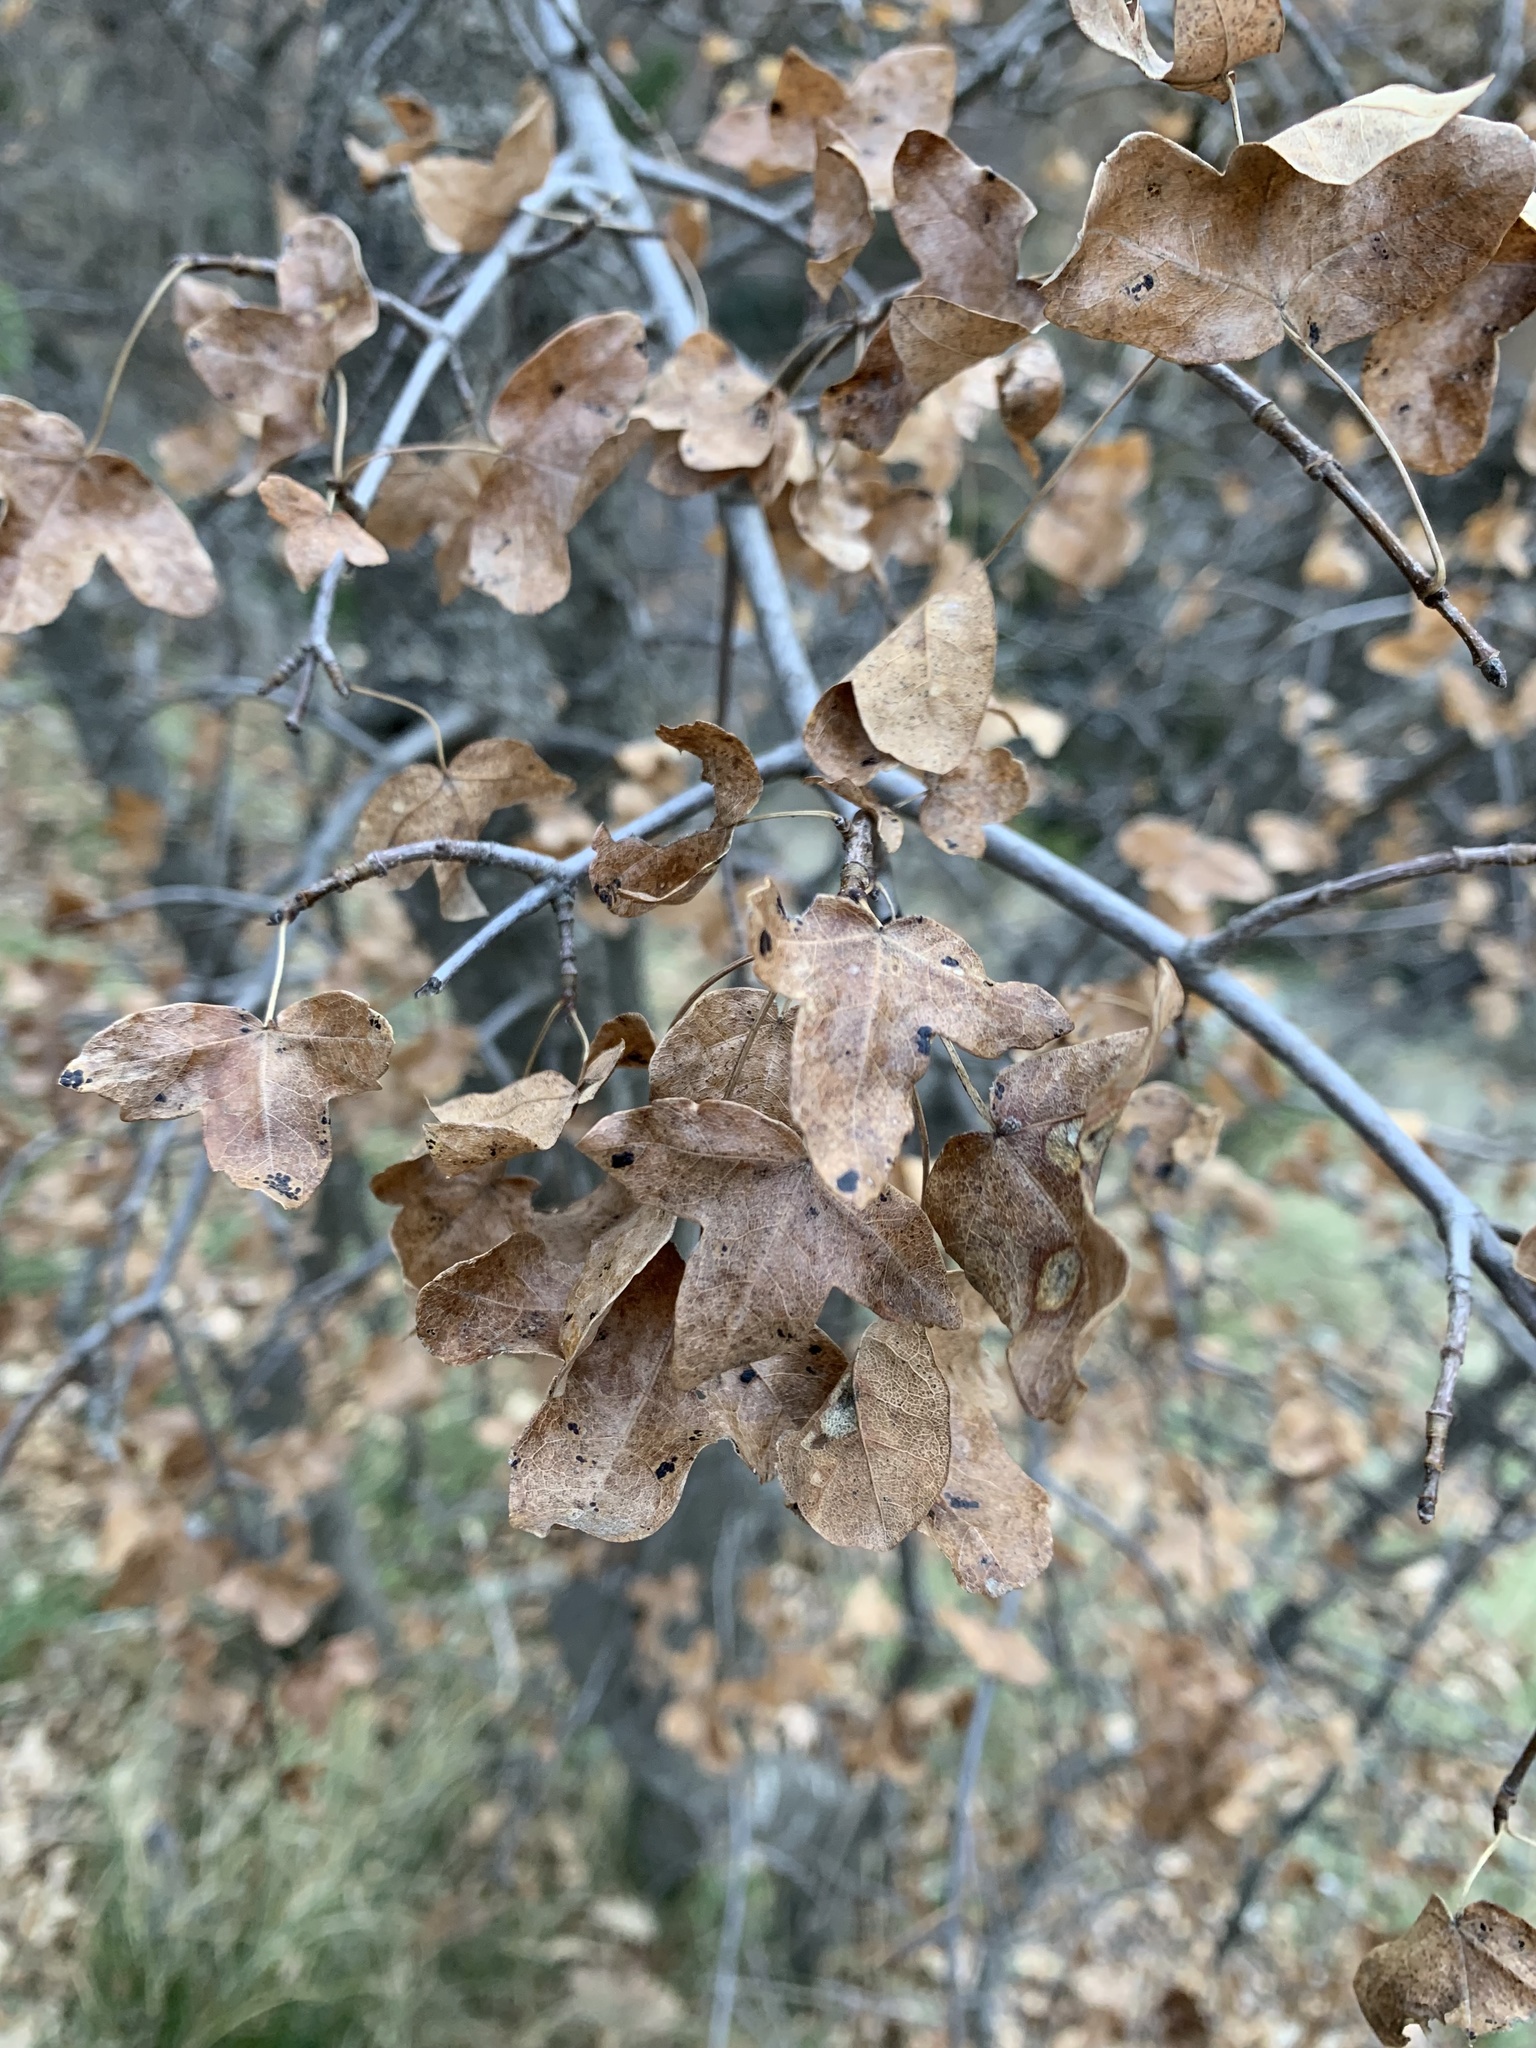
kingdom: Plantae
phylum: Tracheophyta
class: Magnoliopsida
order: Sapindales
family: Sapindaceae
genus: Acer
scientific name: Acer monspessulanum
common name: Montpellier maple
